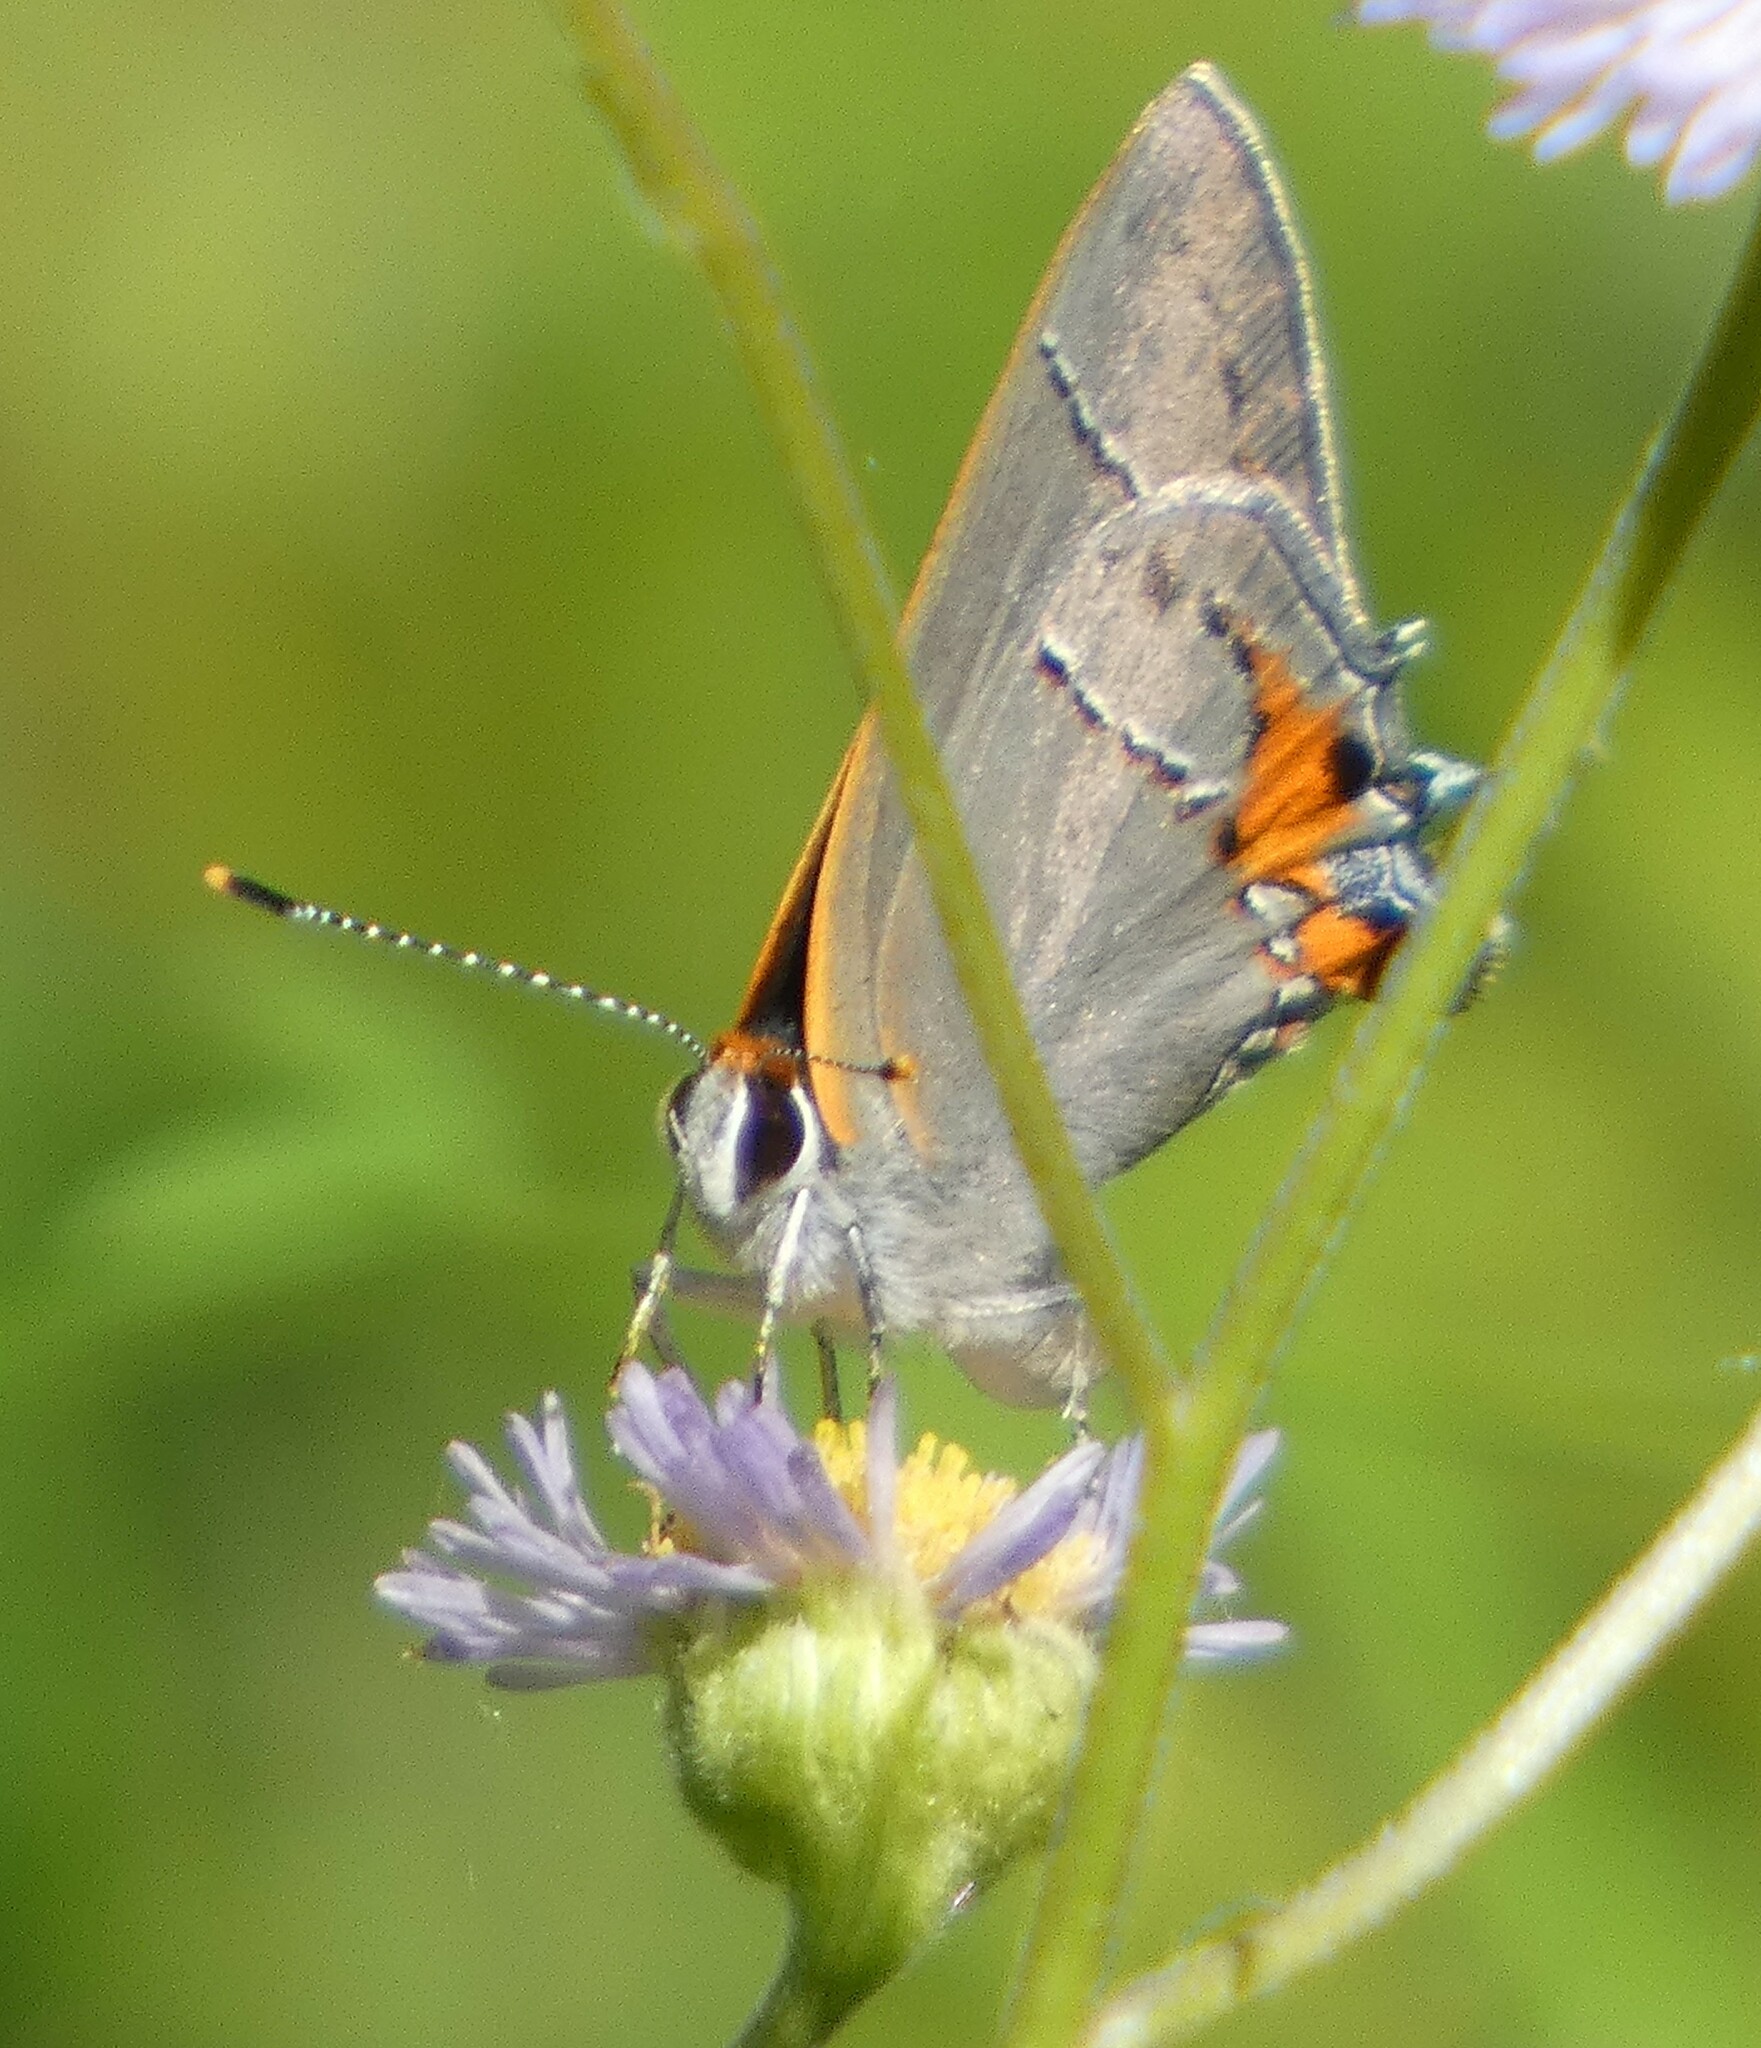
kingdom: Animalia
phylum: Arthropoda
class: Insecta
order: Lepidoptera
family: Lycaenidae
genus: Strymon
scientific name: Strymon melinus
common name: Gray hairstreak
